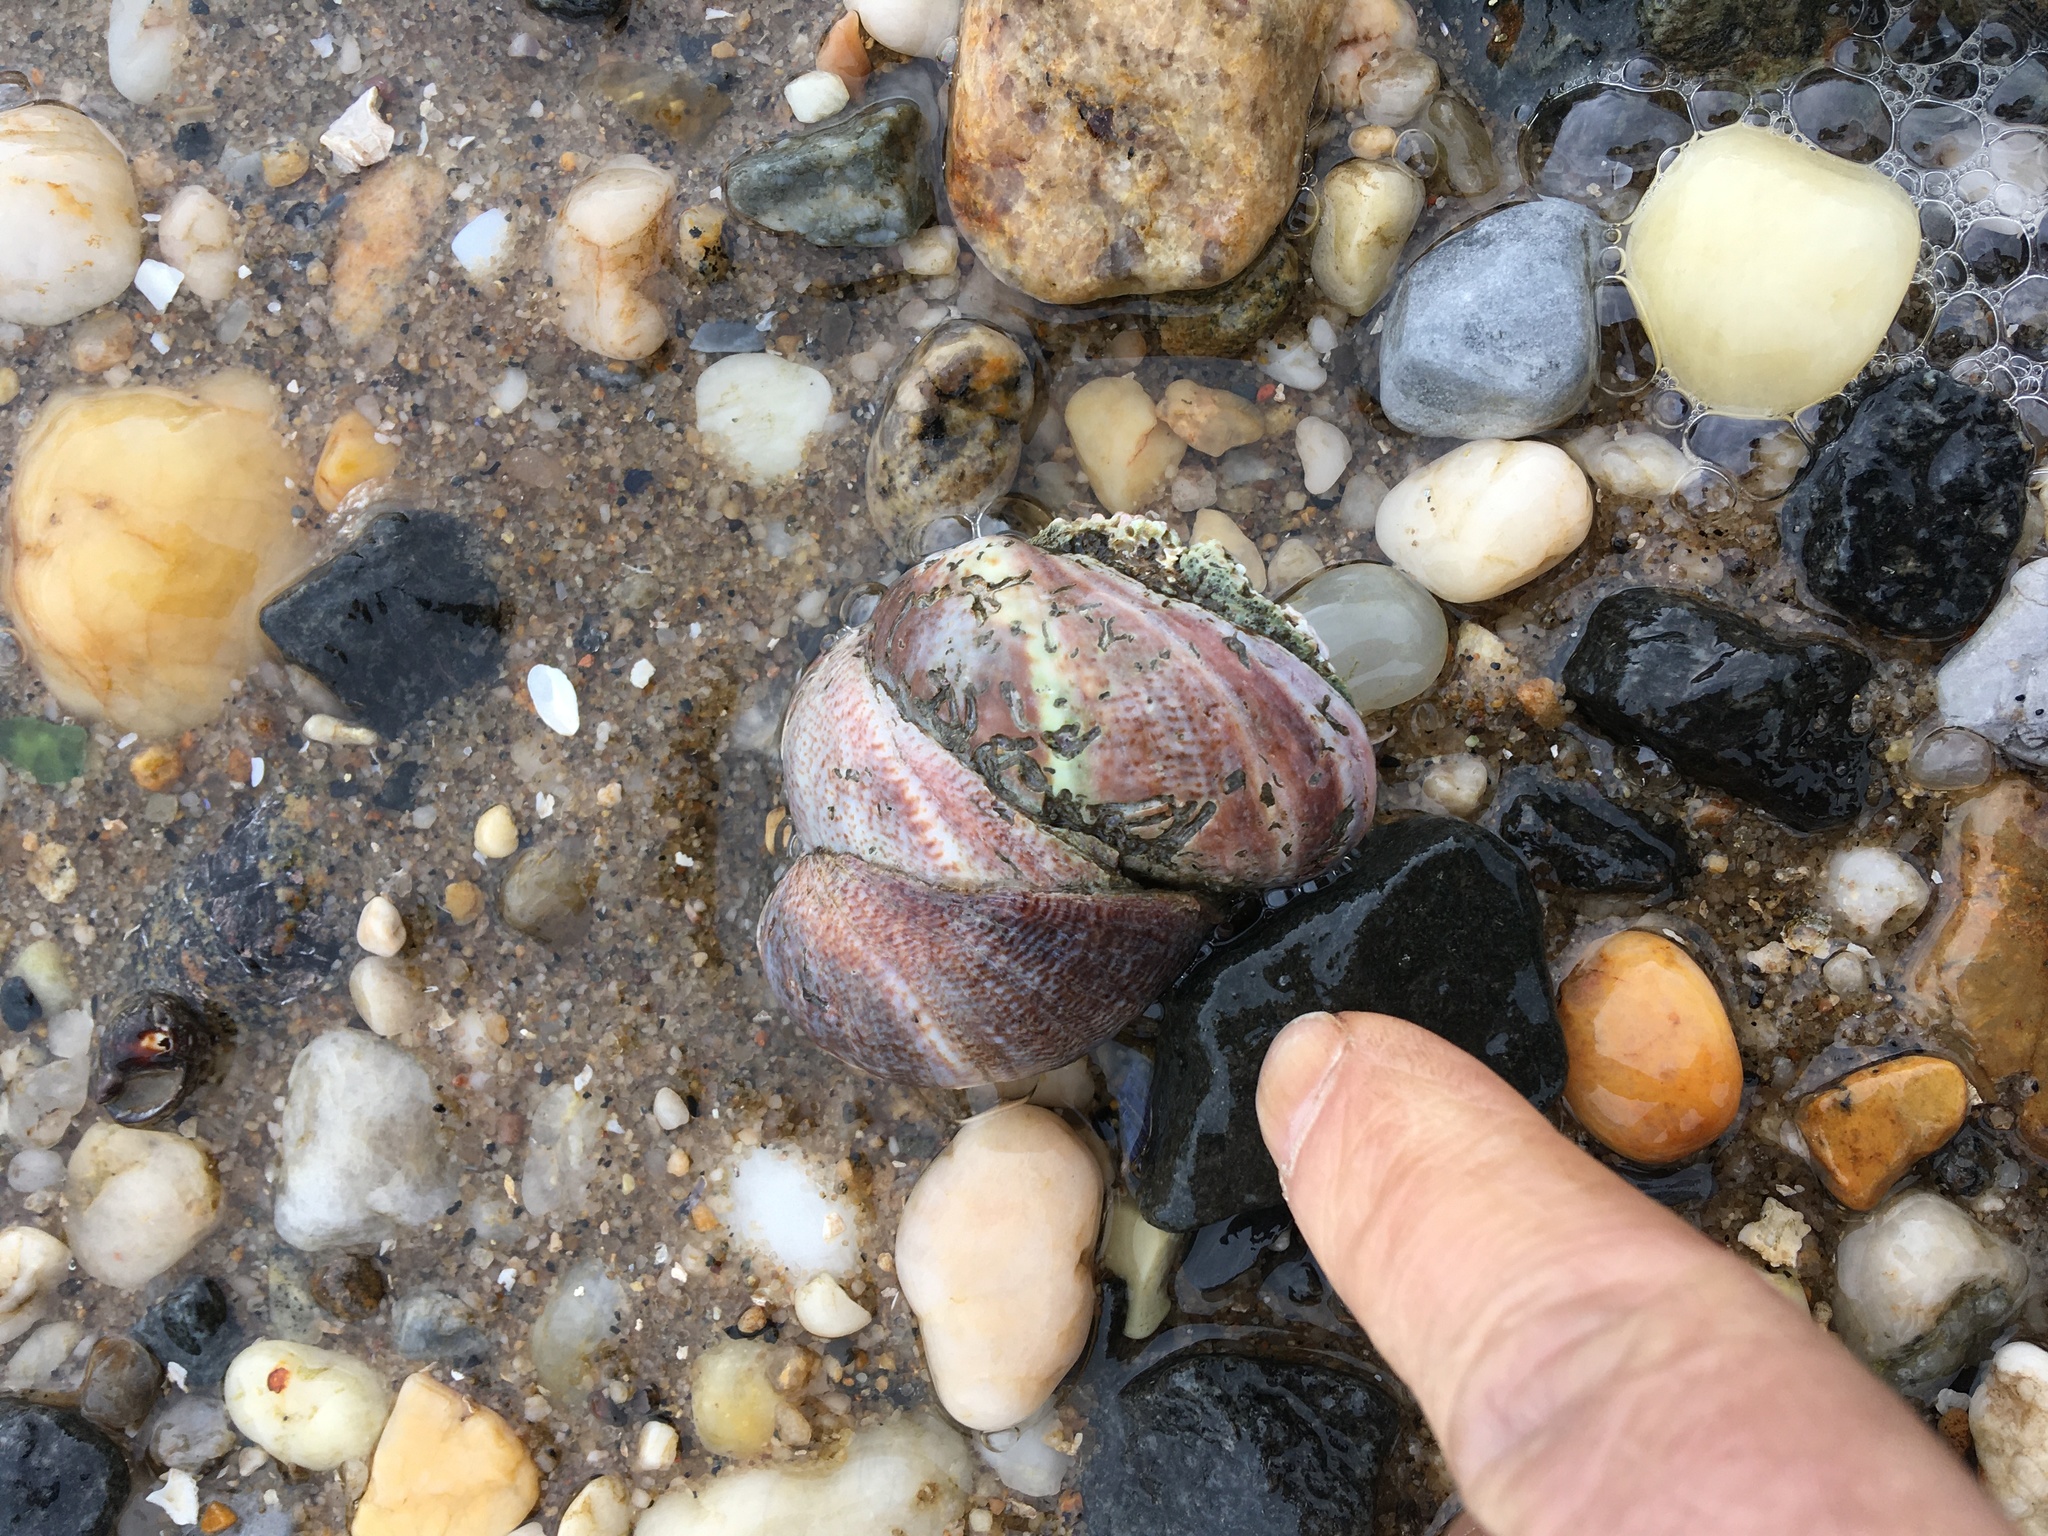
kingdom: Animalia
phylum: Mollusca
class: Gastropoda
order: Littorinimorpha
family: Calyptraeidae
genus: Crepidula
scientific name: Crepidula fornicata
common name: Slipper limpet
